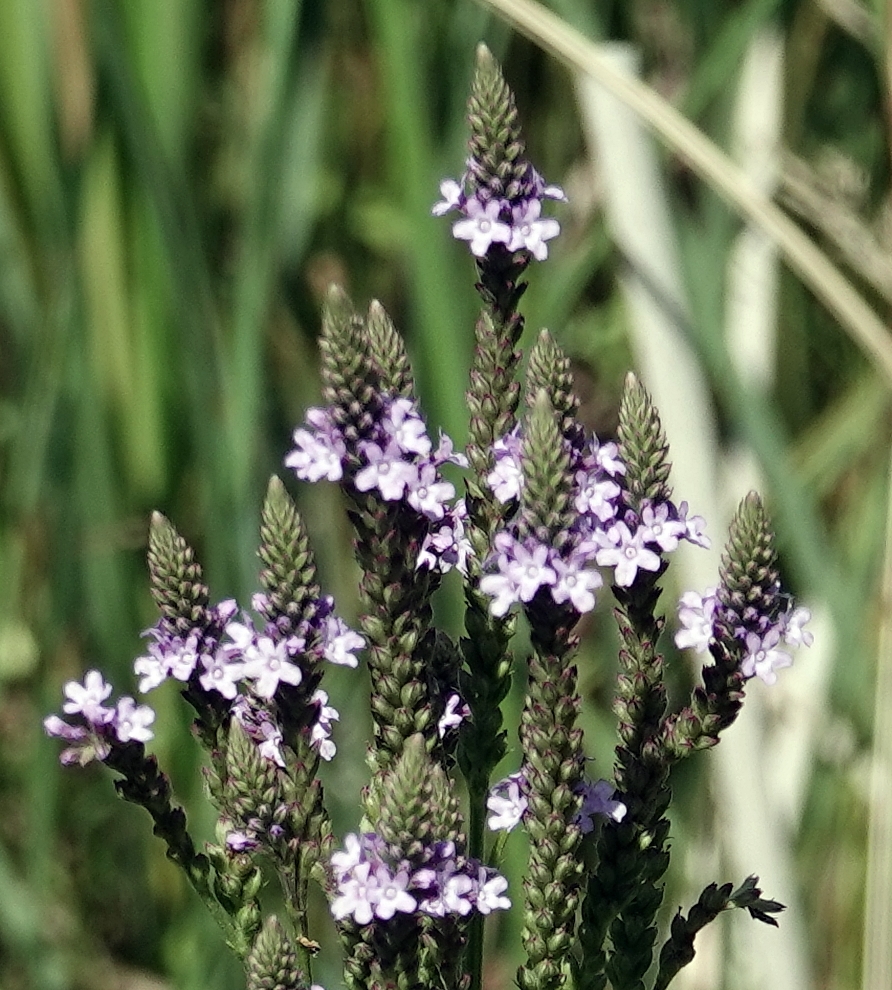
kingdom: Plantae
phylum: Tracheophyta
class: Magnoliopsida
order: Lamiales
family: Verbenaceae
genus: Verbena
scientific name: Verbena hastata
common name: American blue vervain
